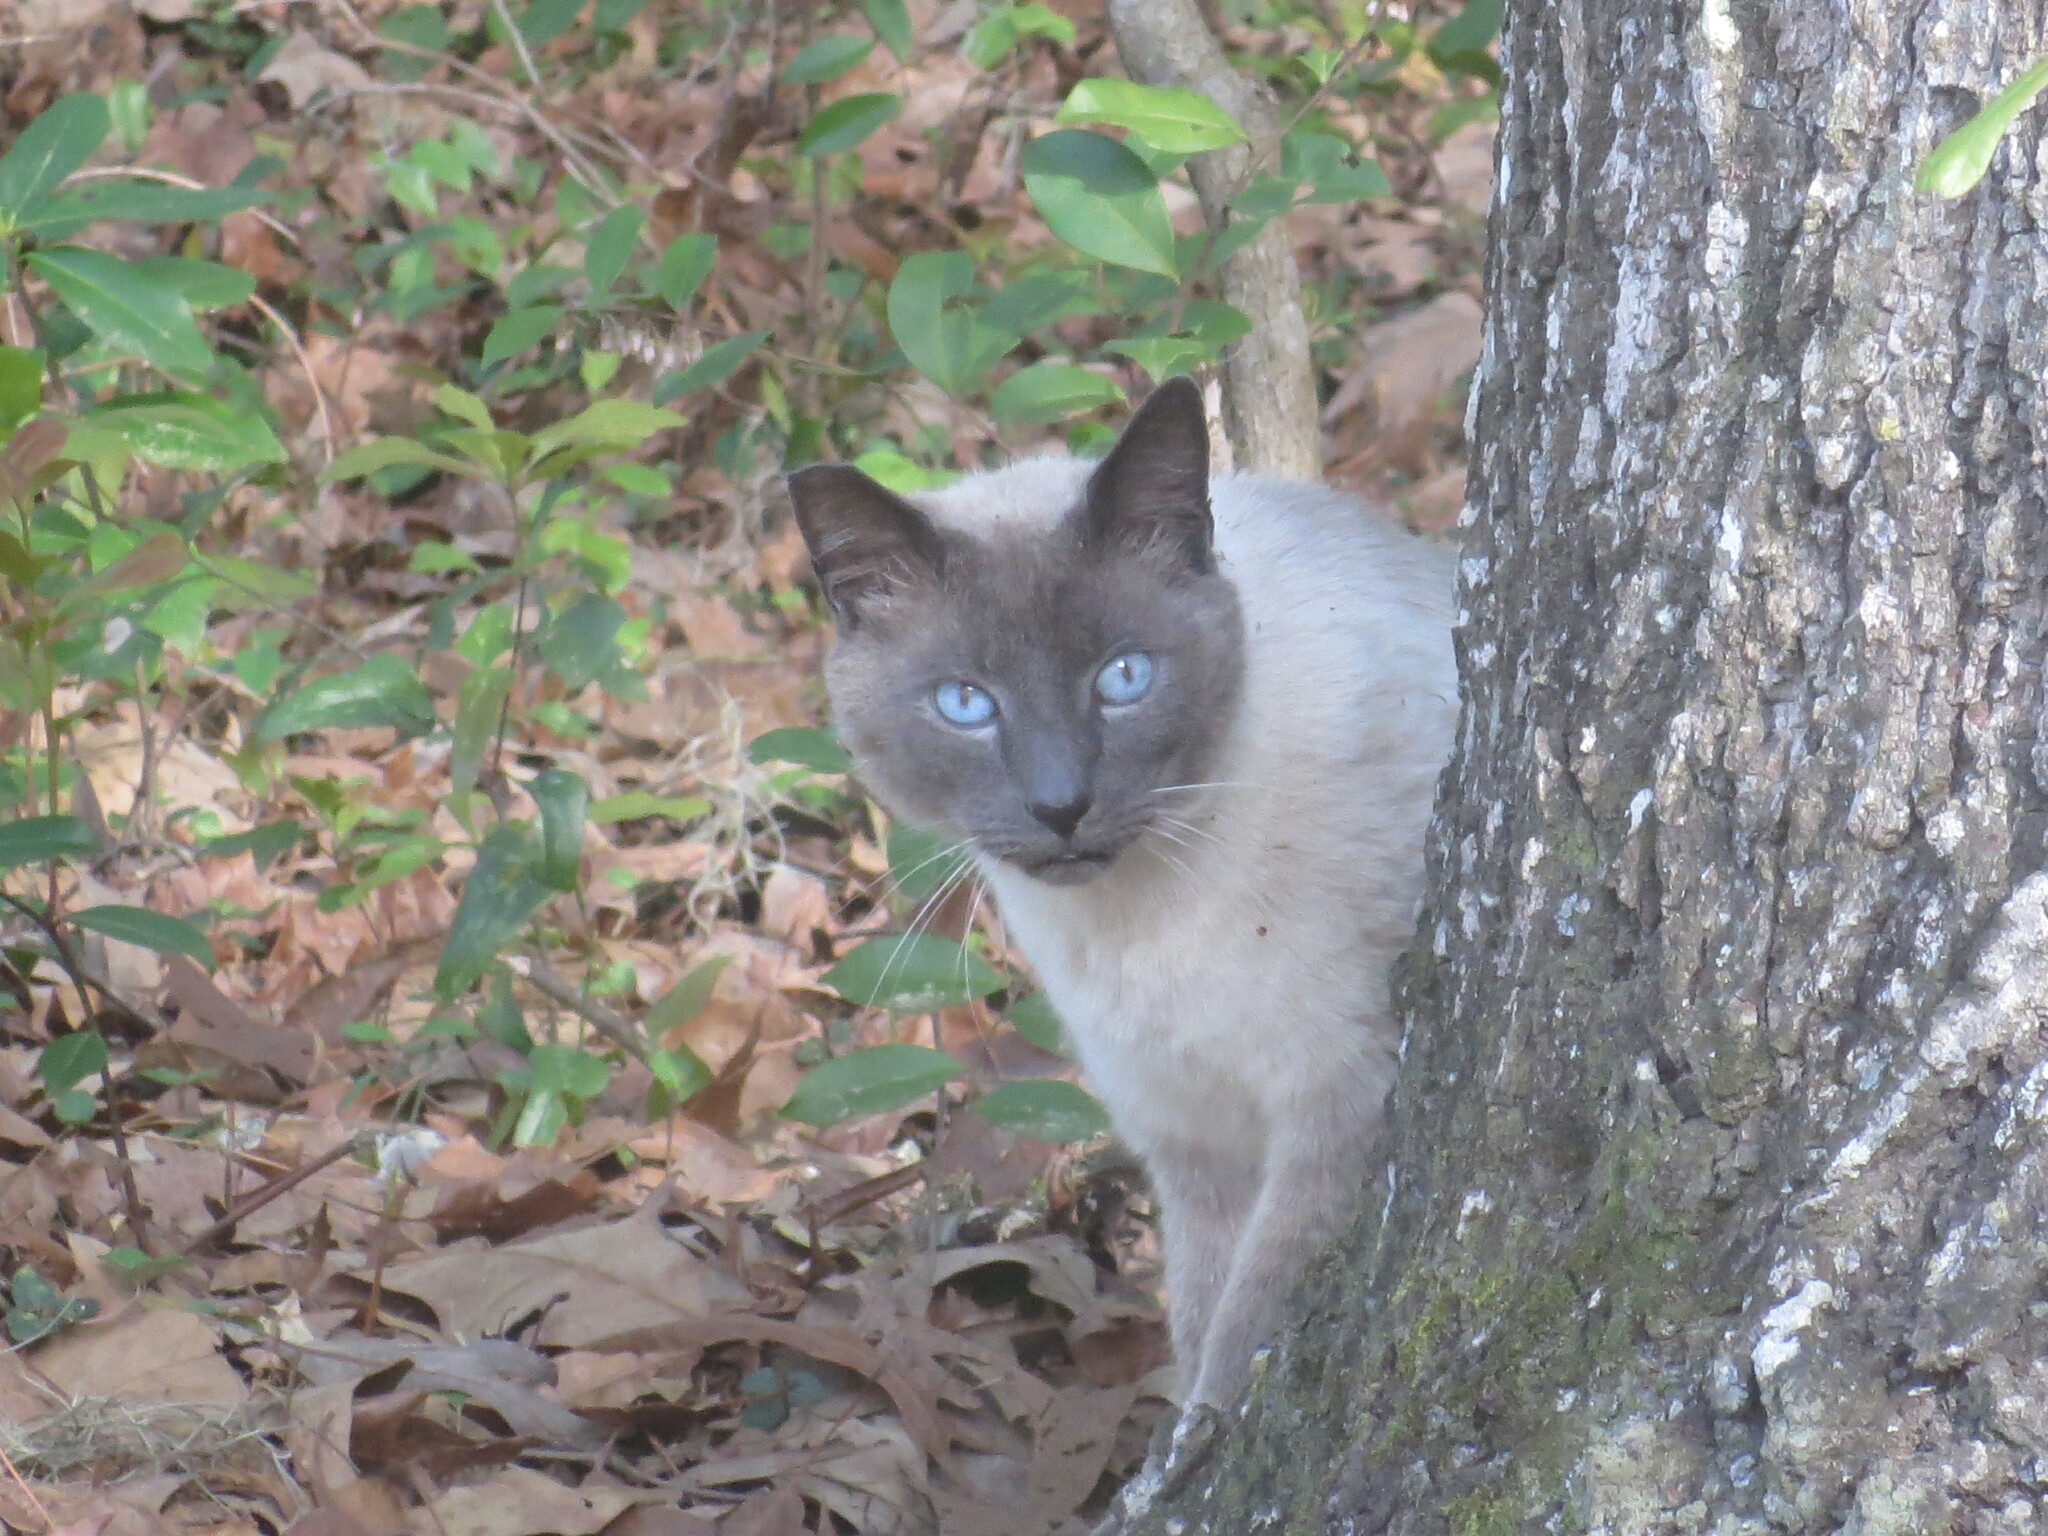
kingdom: Animalia
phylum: Chordata
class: Mammalia
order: Carnivora
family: Felidae
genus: Felis
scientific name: Felis catus
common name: Domestic cat
